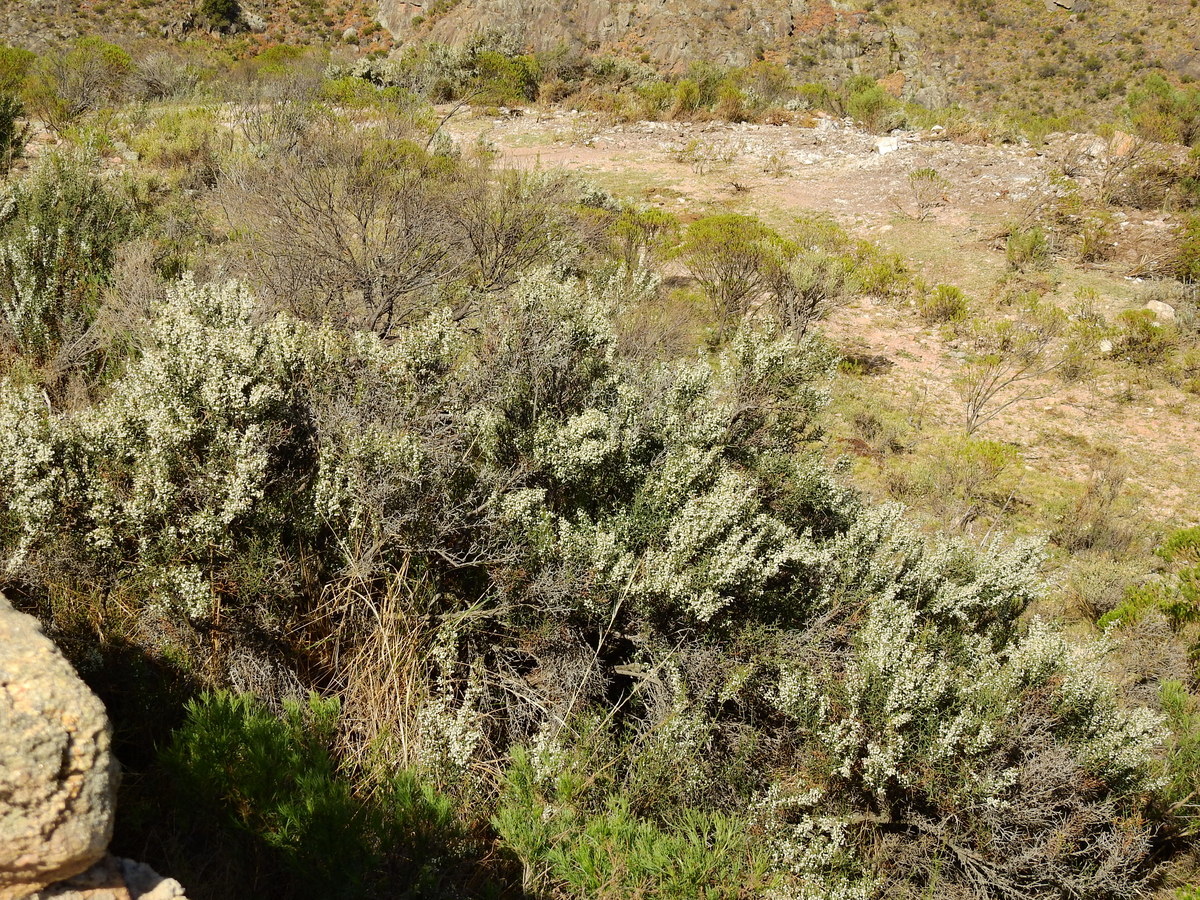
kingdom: Plantae
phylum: Tracheophyta
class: Magnoliopsida
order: Rosales
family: Rhamnaceae
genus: Colletia
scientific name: Colletia spinosissima
